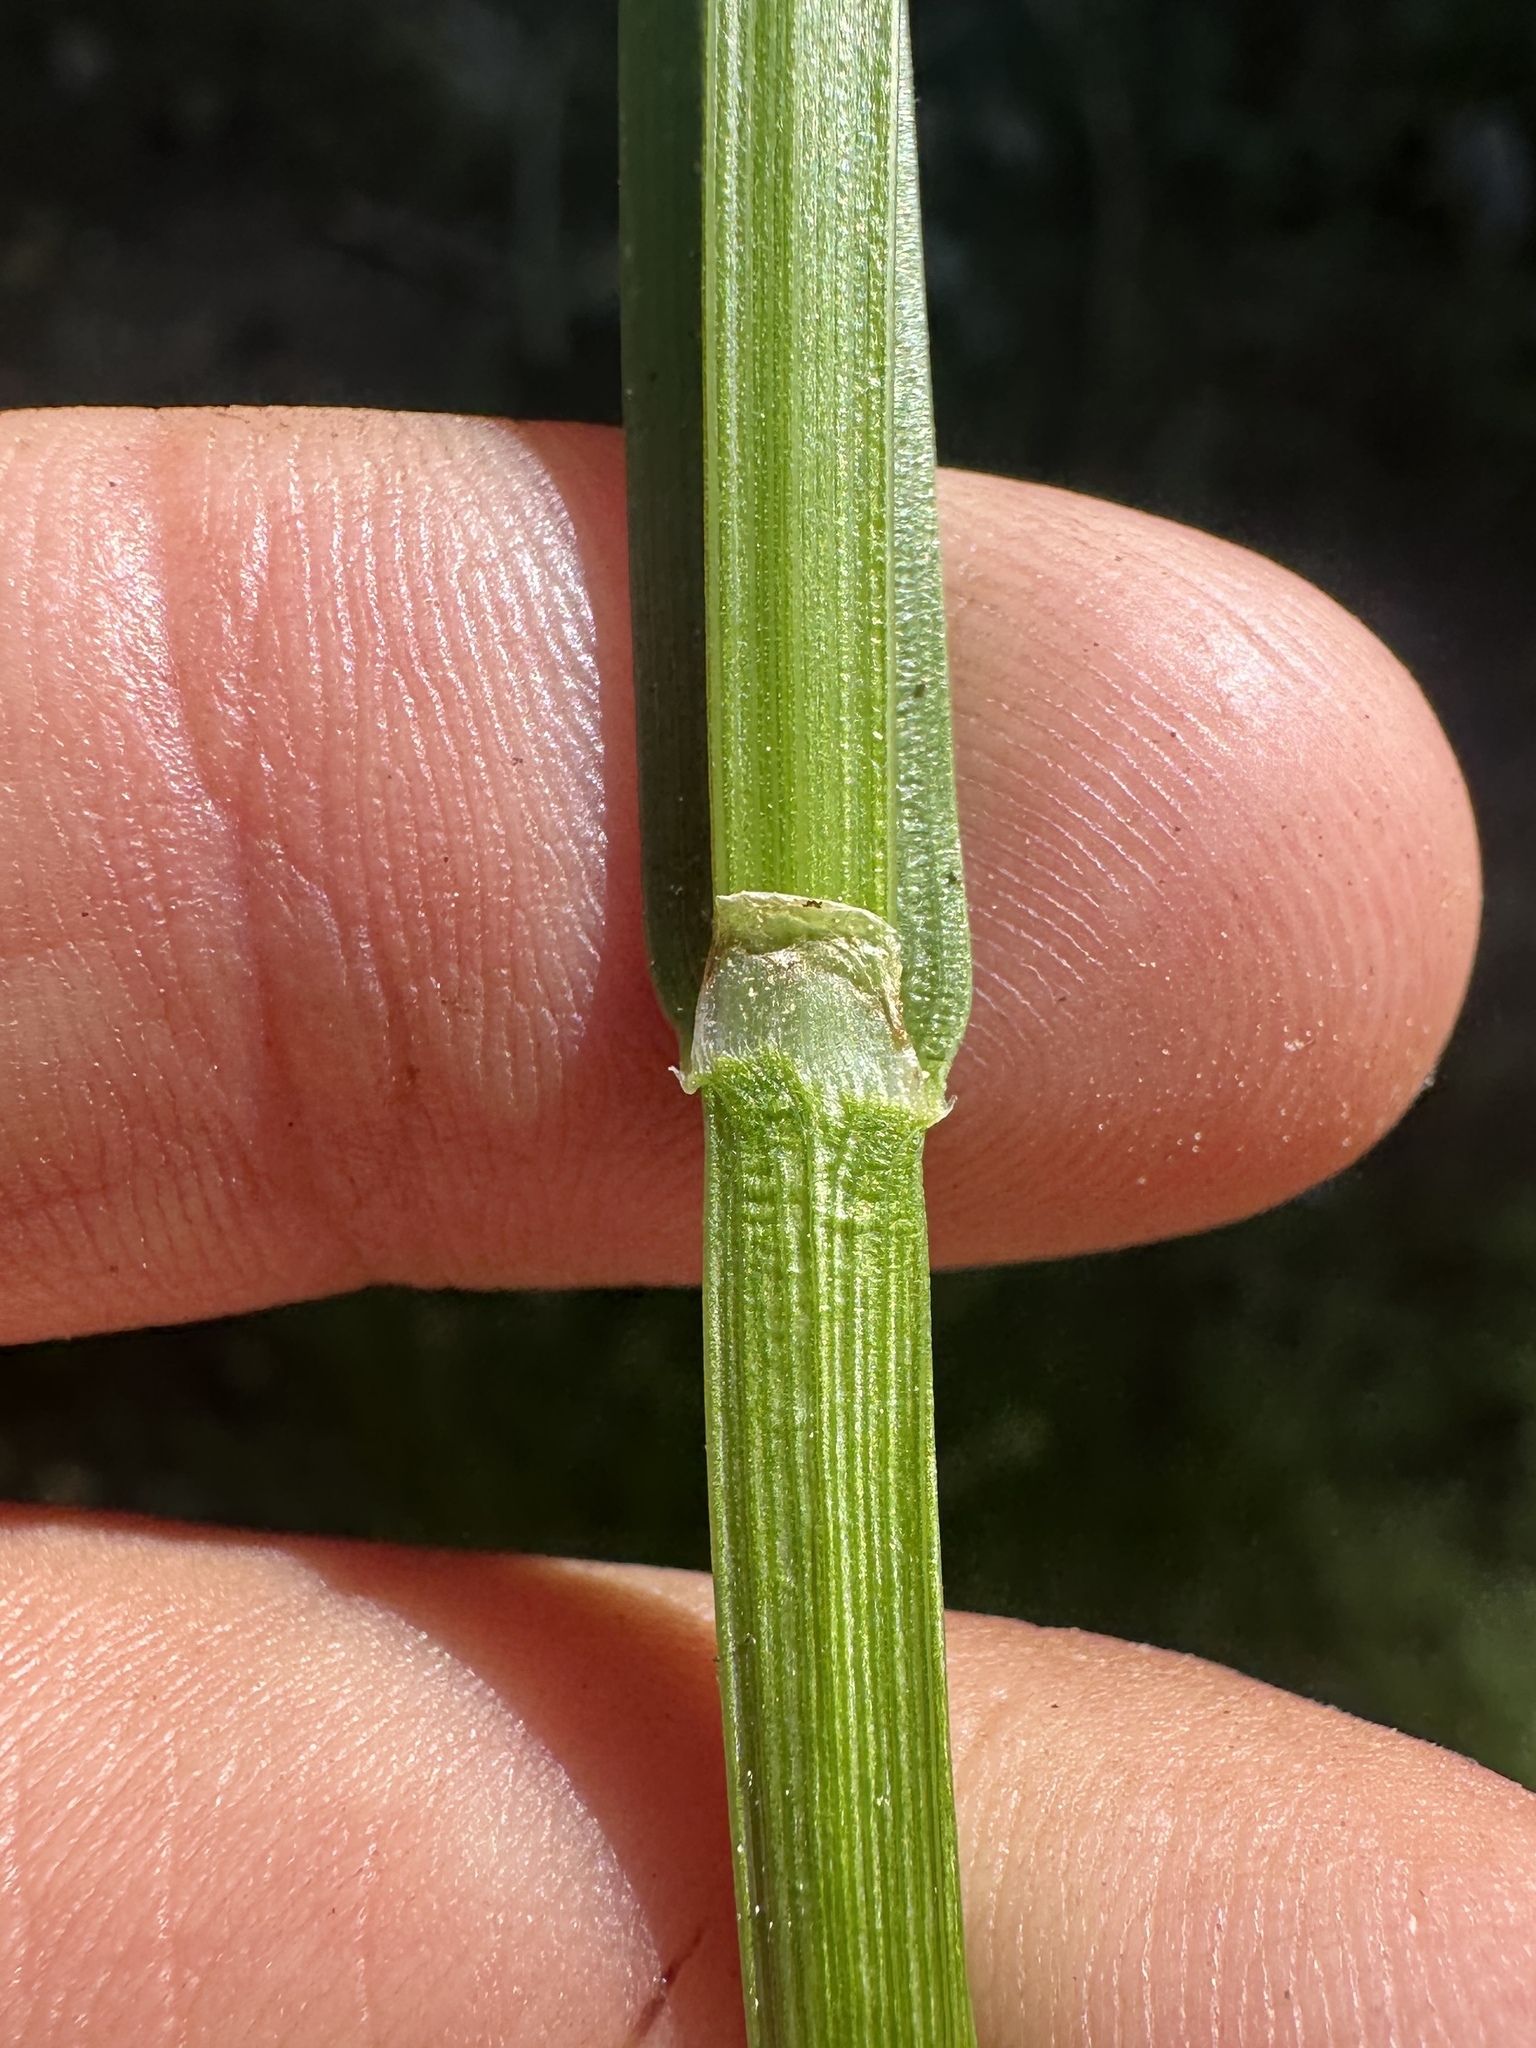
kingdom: Plantae
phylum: Tracheophyta
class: Liliopsida
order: Poales
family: Cyperaceae
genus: Carex
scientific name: Carex fracta
